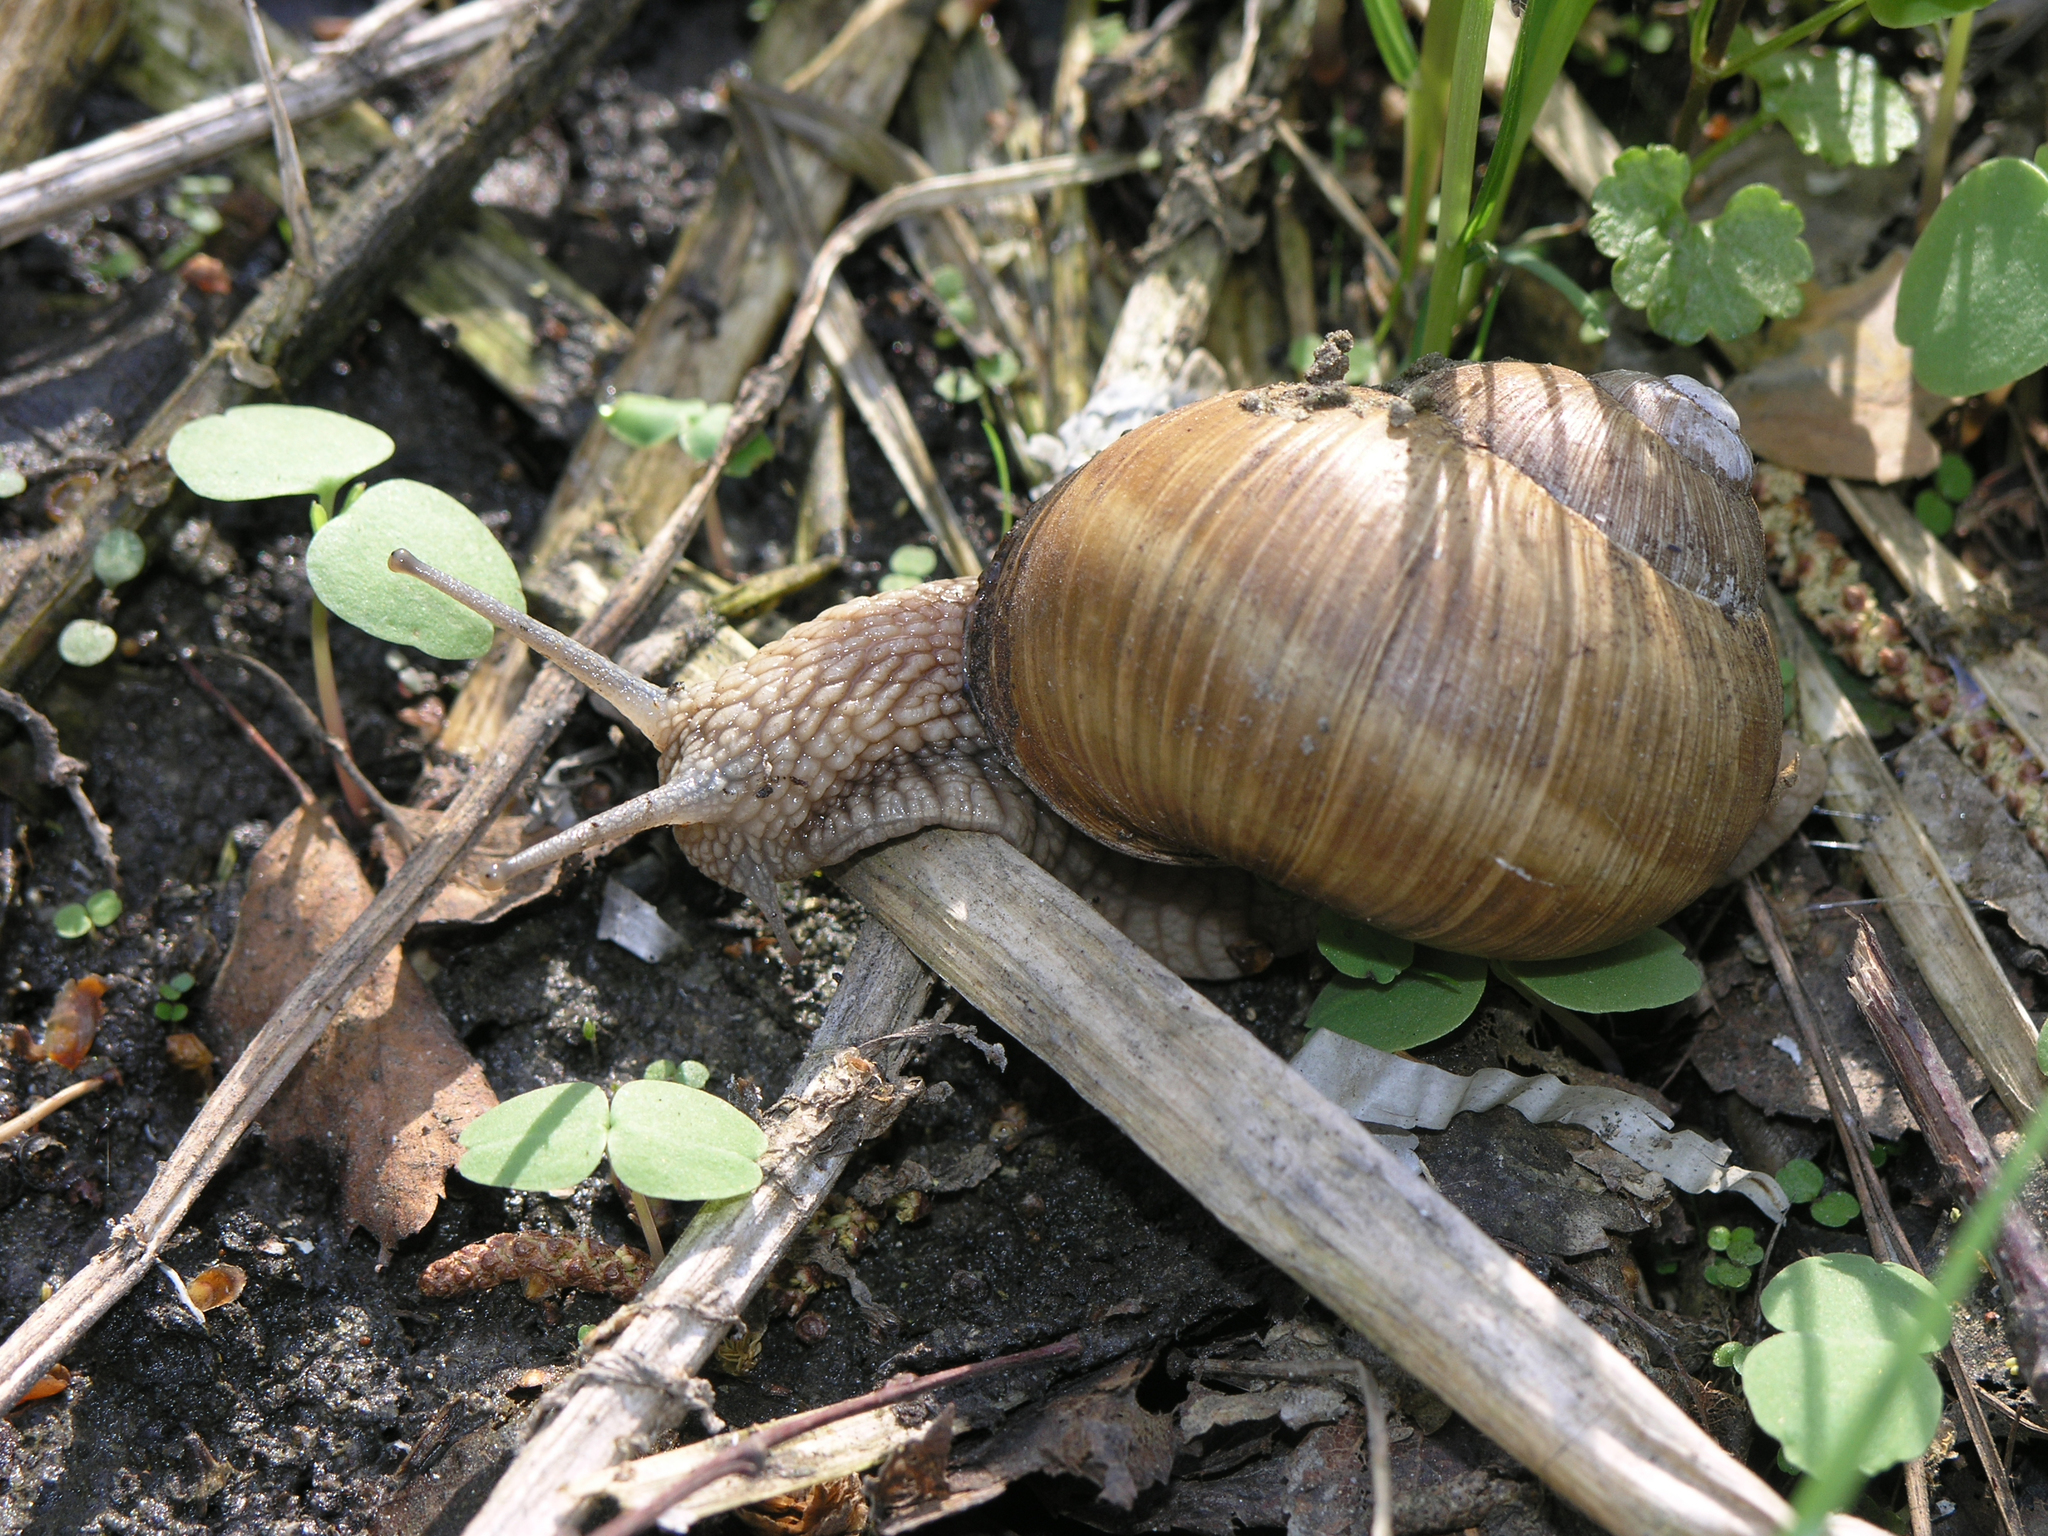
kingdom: Animalia
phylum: Mollusca
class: Gastropoda
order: Stylommatophora
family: Helicidae
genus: Helix
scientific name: Helix pomatia
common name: Roman snail
